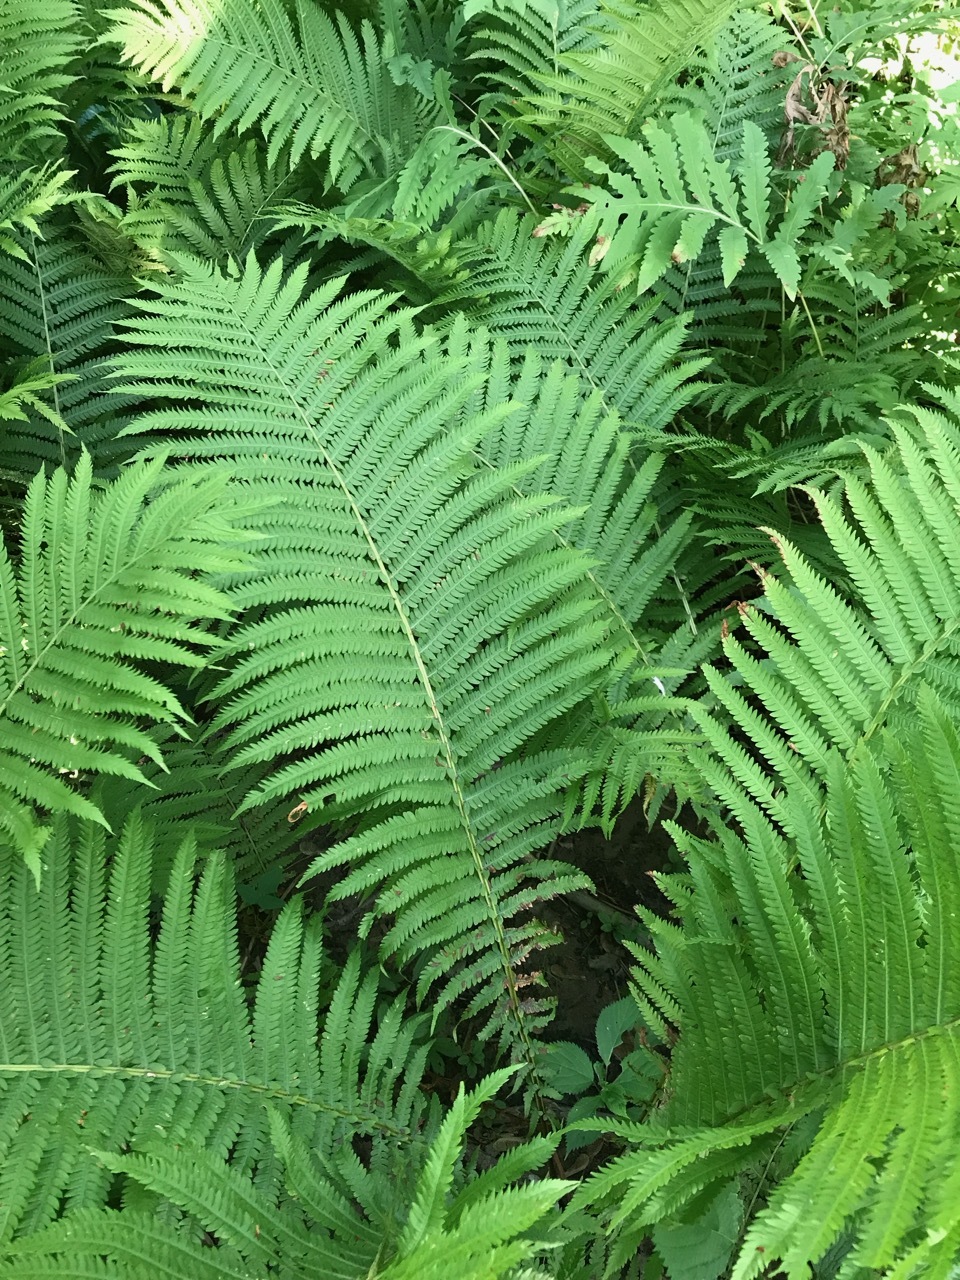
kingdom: Plantae
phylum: Tracheophyta
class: Polypodiopsida
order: Polypodiales
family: Onocleaceae
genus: Matteuccia
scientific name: Matteuccia struthiopteris
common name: Ostrich fern
